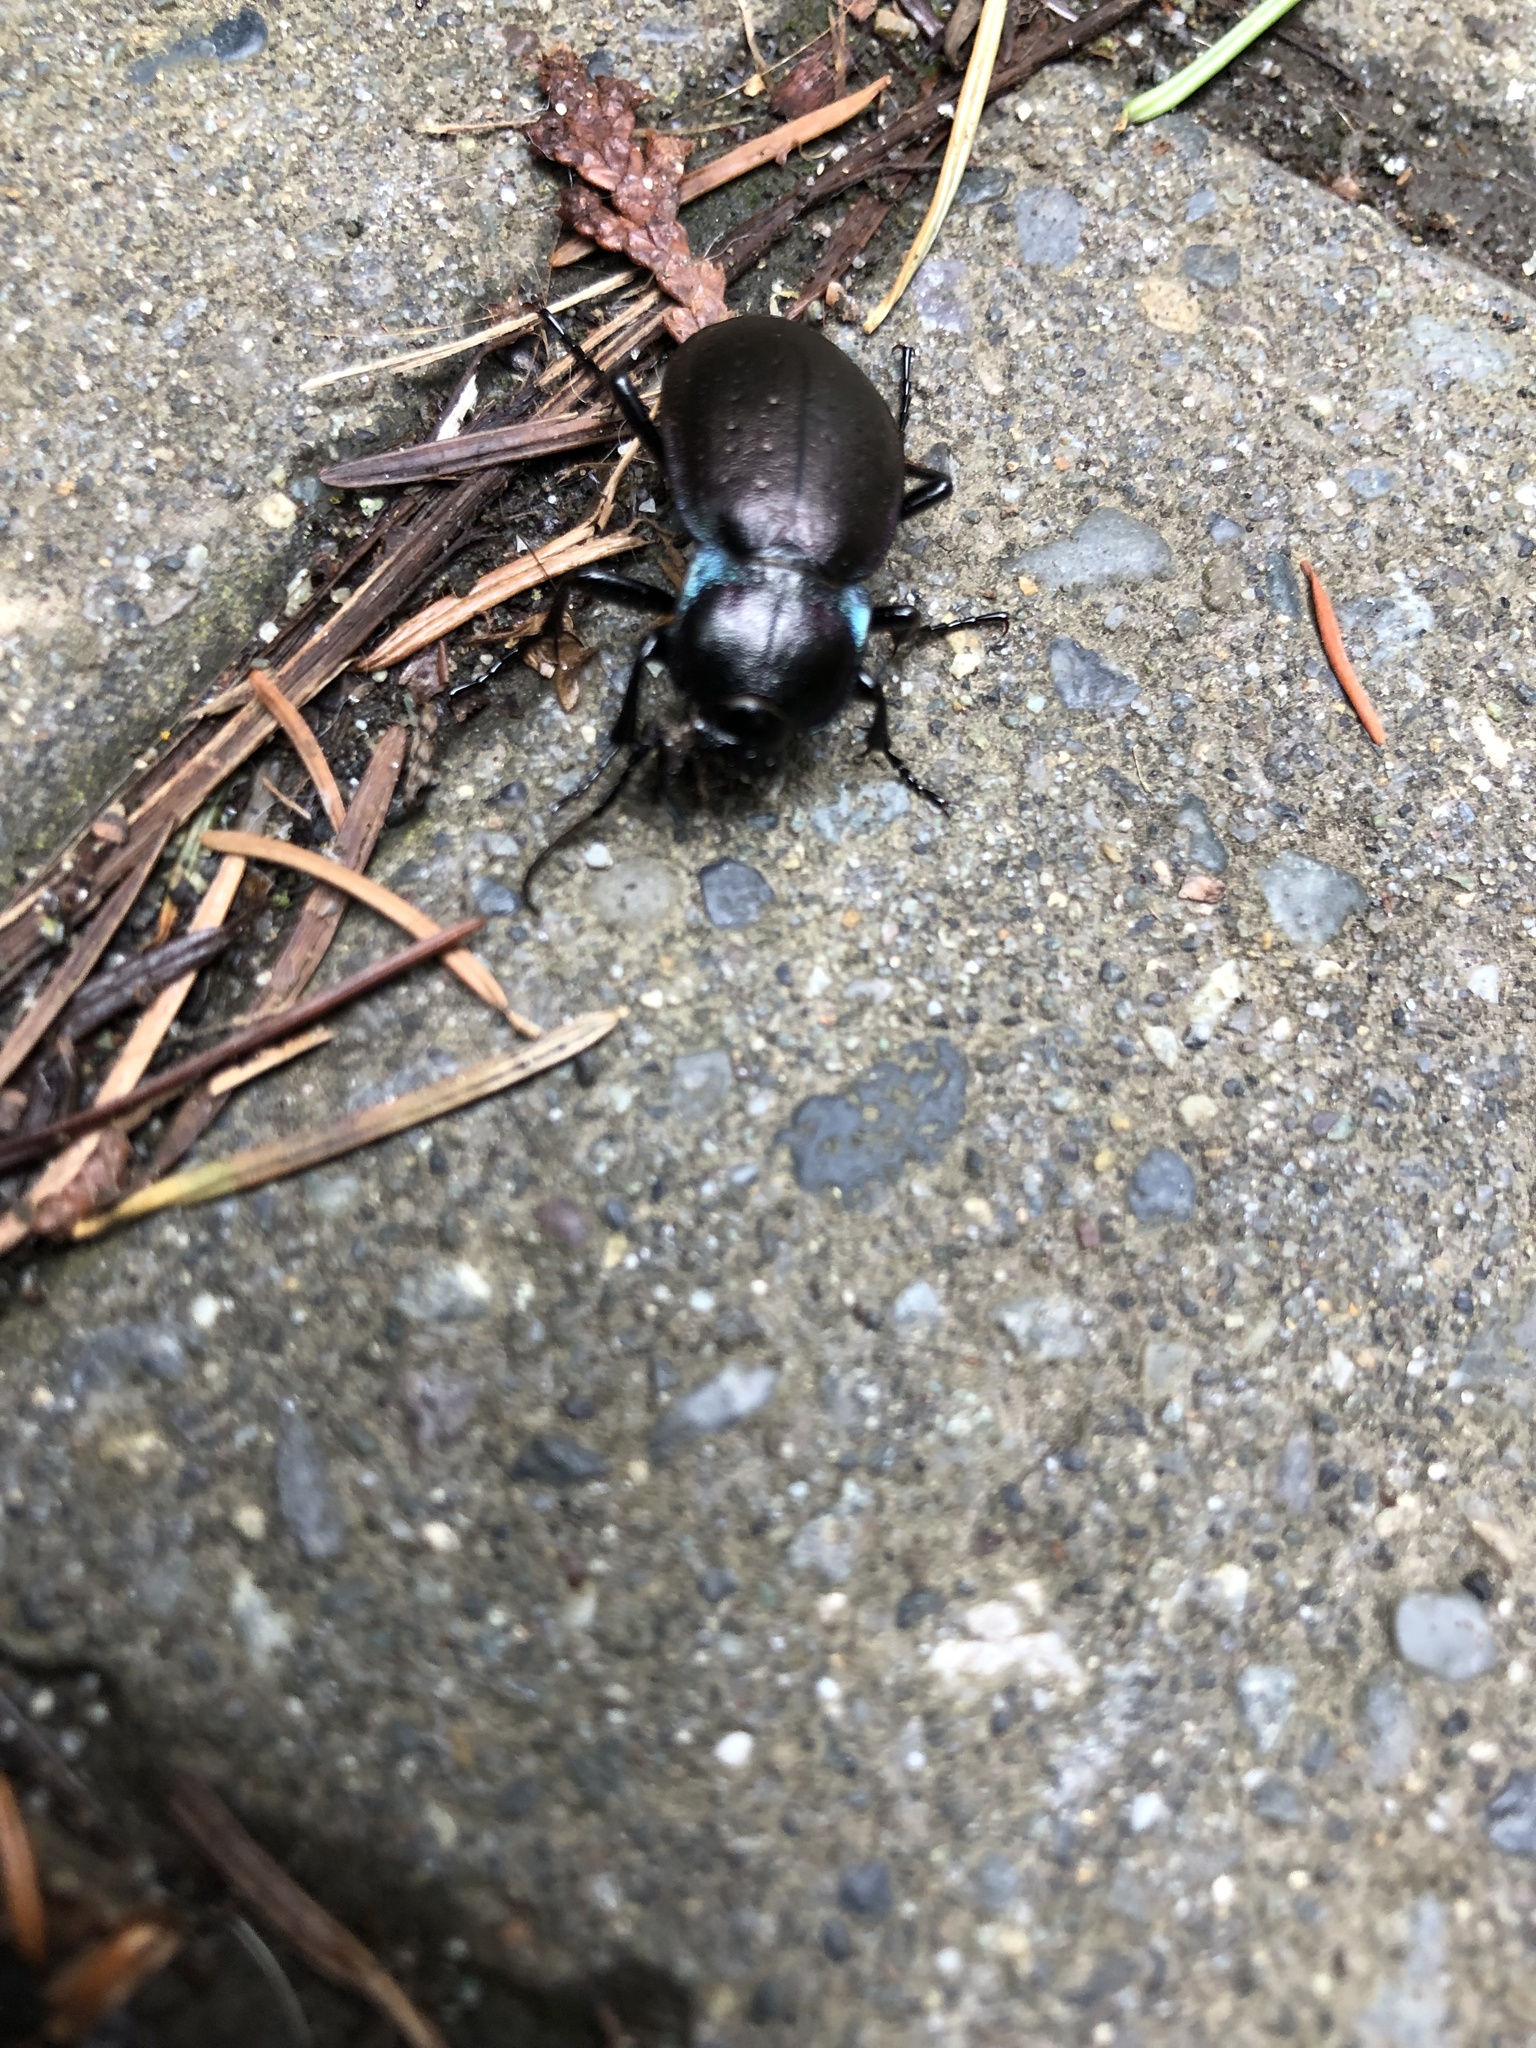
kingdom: Animalia
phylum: Arthropoda
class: Insecta
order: Coleoptera
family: Carabidae
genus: Carabus
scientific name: Carabus nemoralis
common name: European ground beetle
